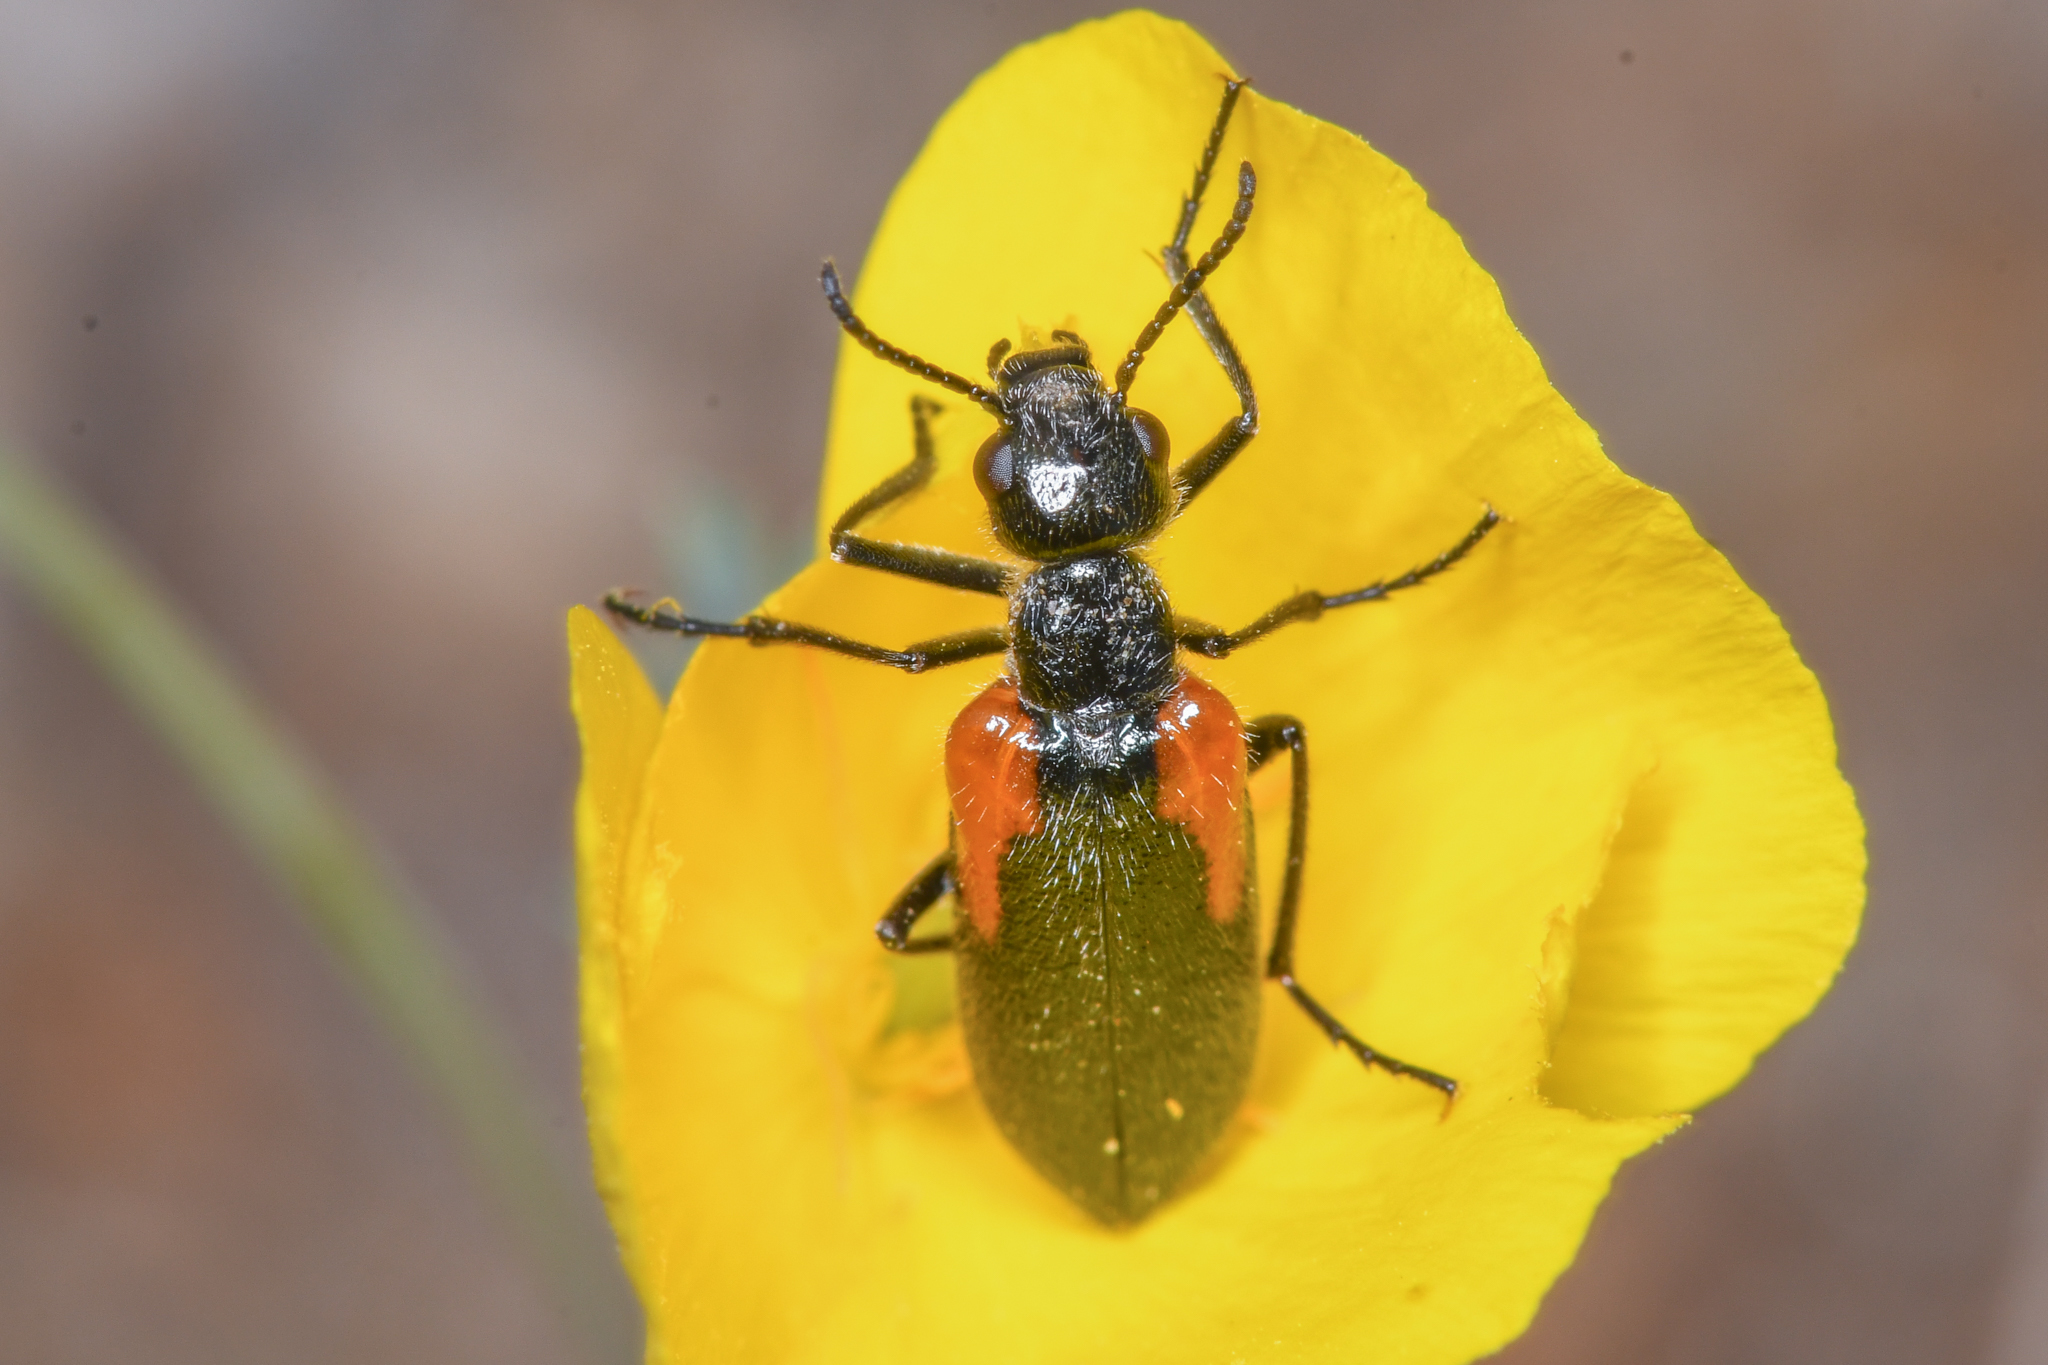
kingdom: Animalia
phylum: Arthropoda
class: Insecta
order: Coleoptera
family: Meloidae
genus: Eupompha
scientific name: Eupompha elegans
